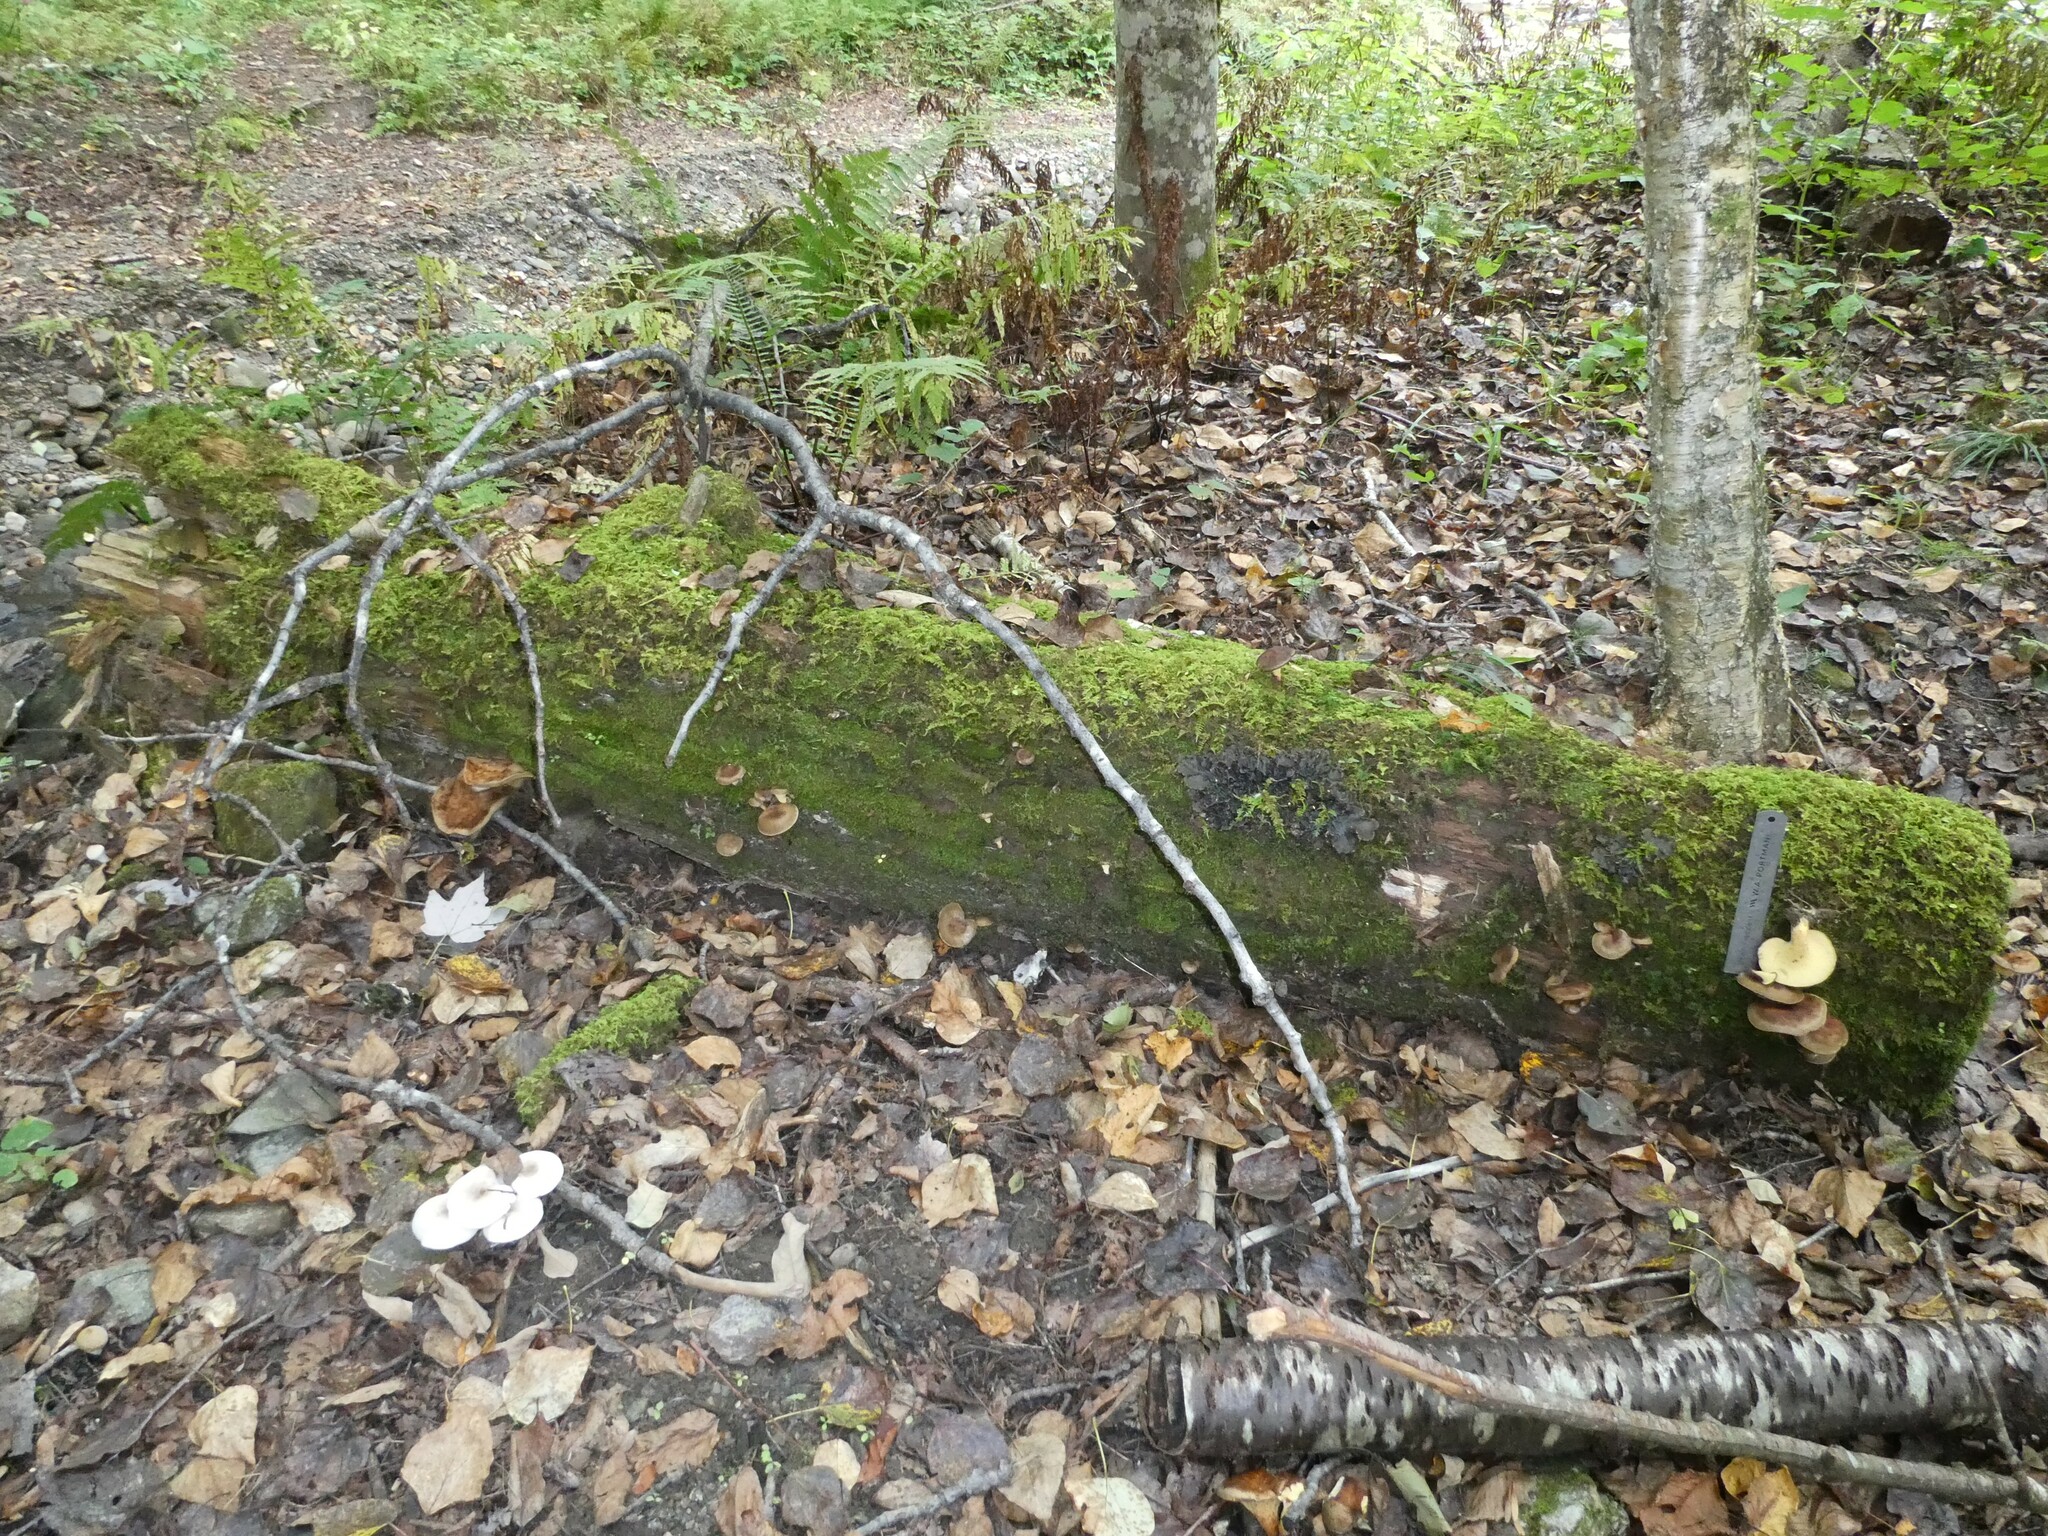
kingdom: Fungi
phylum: Basidiomycota
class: Agaricomycetes
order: Boletales
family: Boletinellaceae
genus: Boletinellus
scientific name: Boletinellus merulioides
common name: Ash tree bolete
